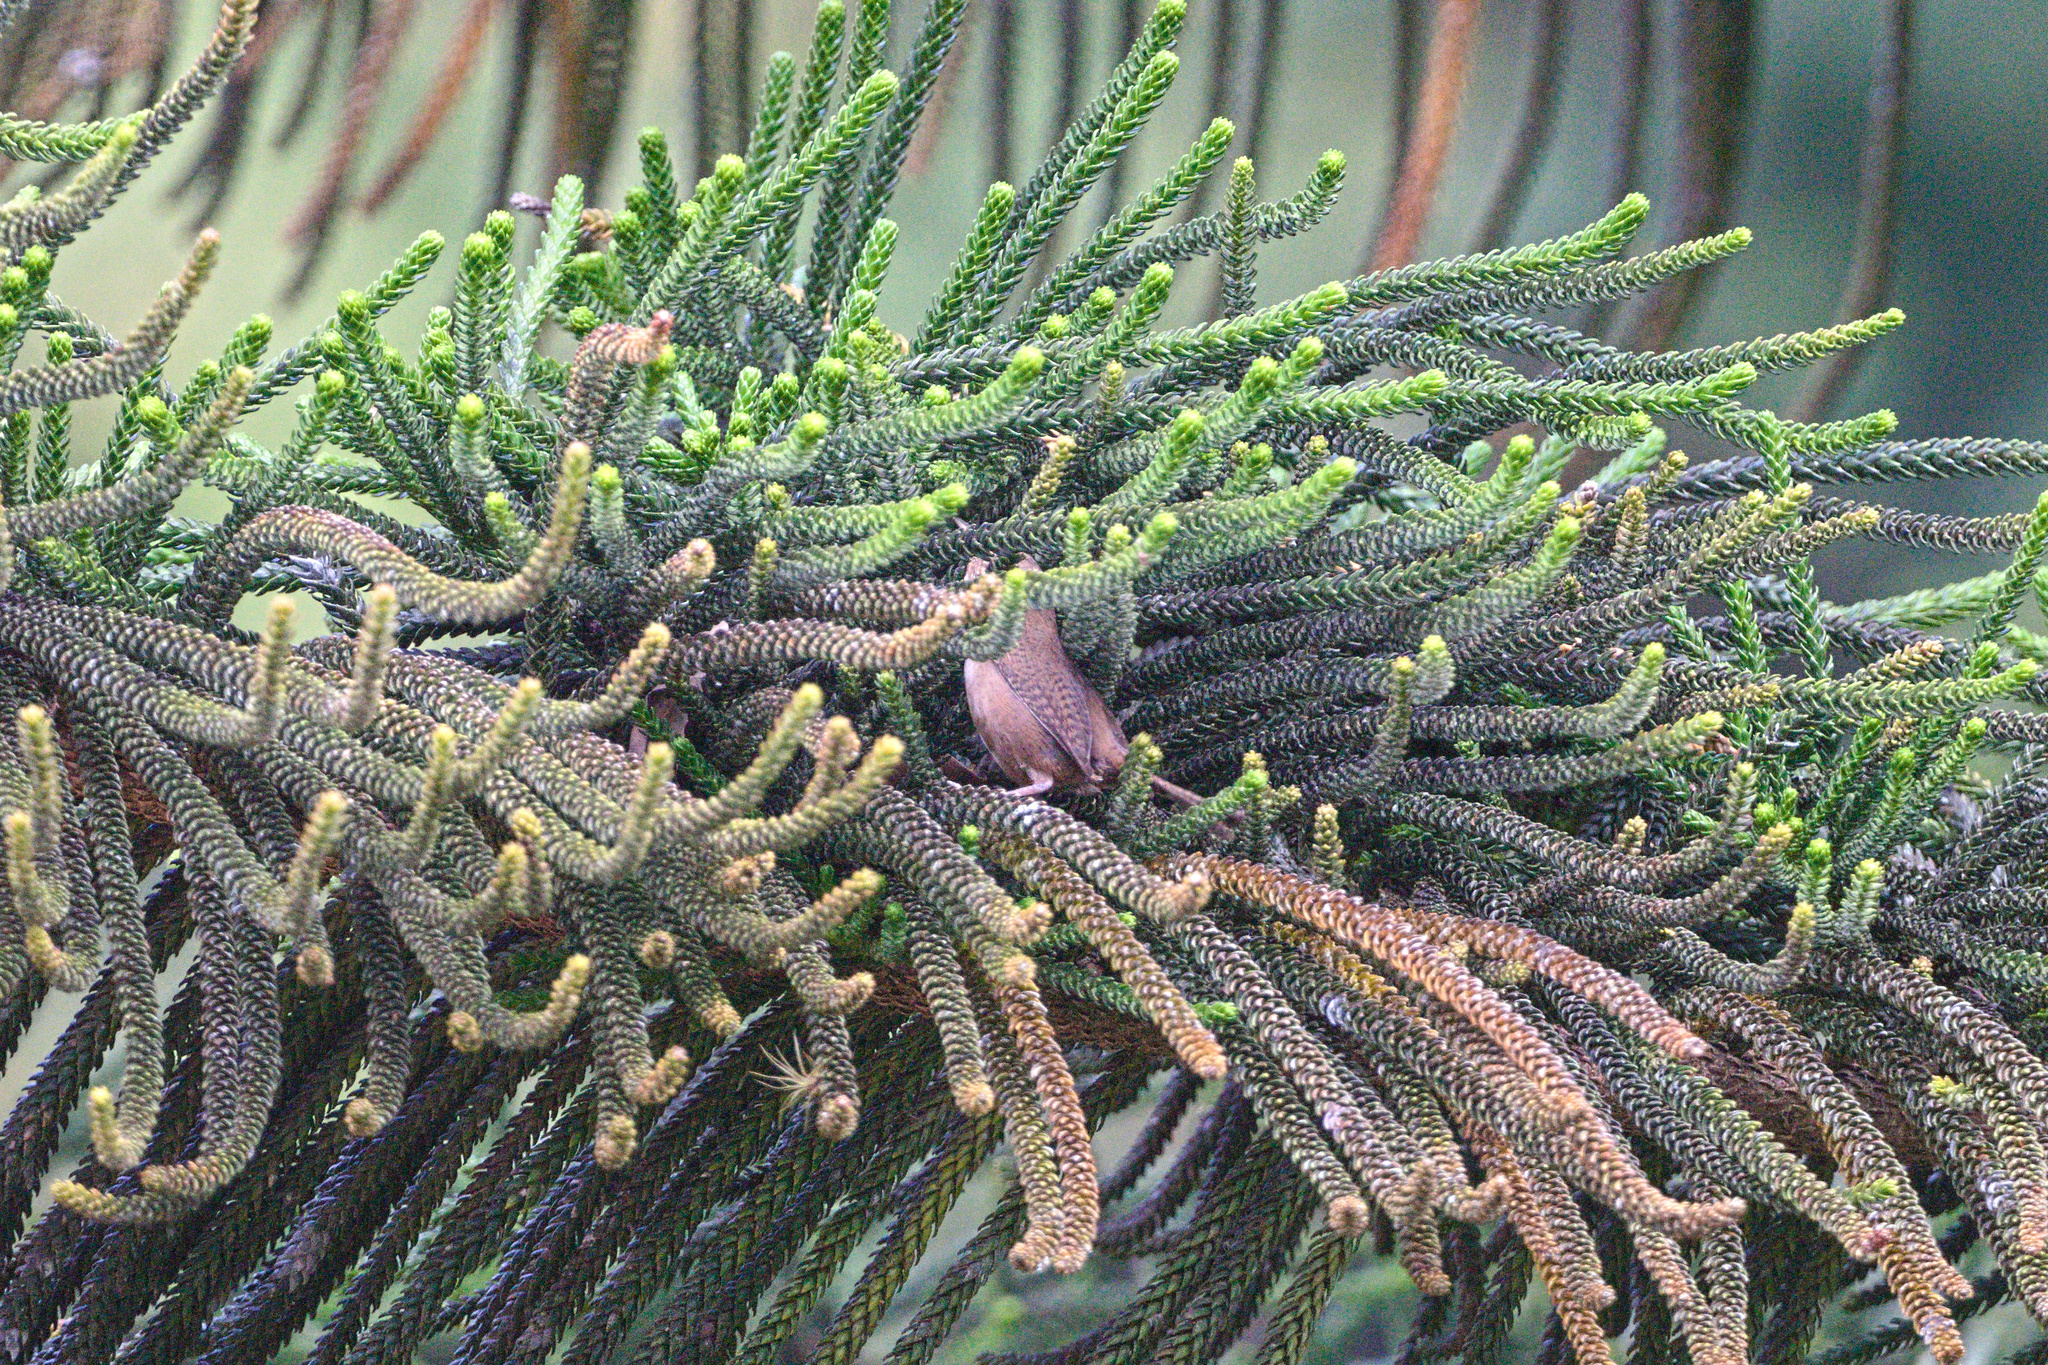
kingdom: Animalia
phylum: Chordata
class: Aves
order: Passeriformes
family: Troglodytidae
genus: Troglodytes
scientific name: Troglodytes aedon
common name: House wren
